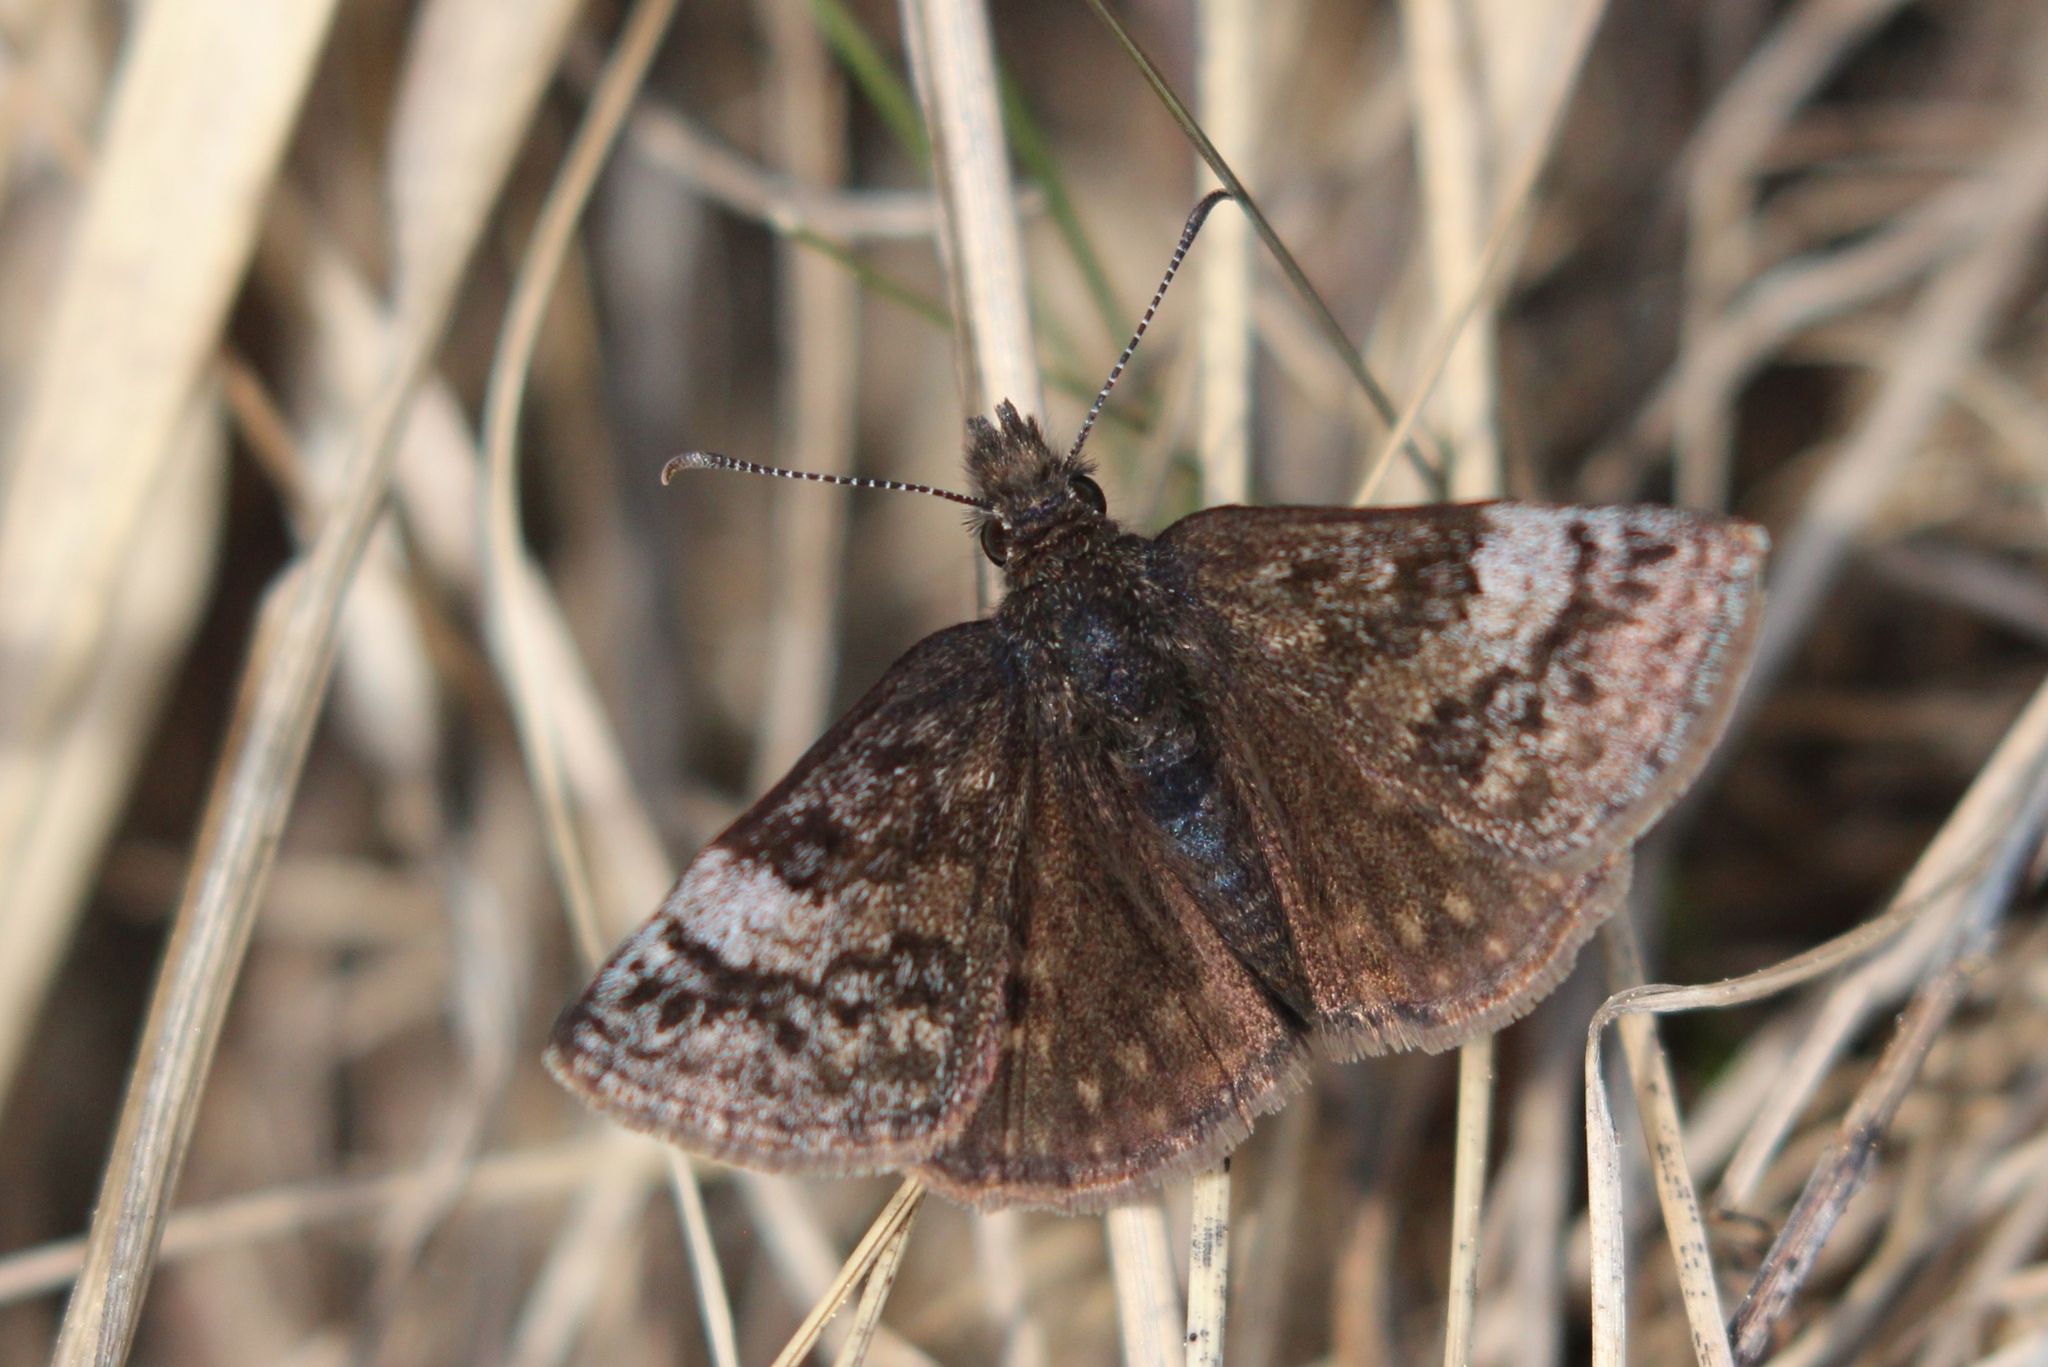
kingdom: Animalia
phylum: Arthropoda
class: Insecta
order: Lepidoptera
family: Hesperiidae
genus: Erynnis
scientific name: Erynnis icelus
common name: Dreamy duskywing
